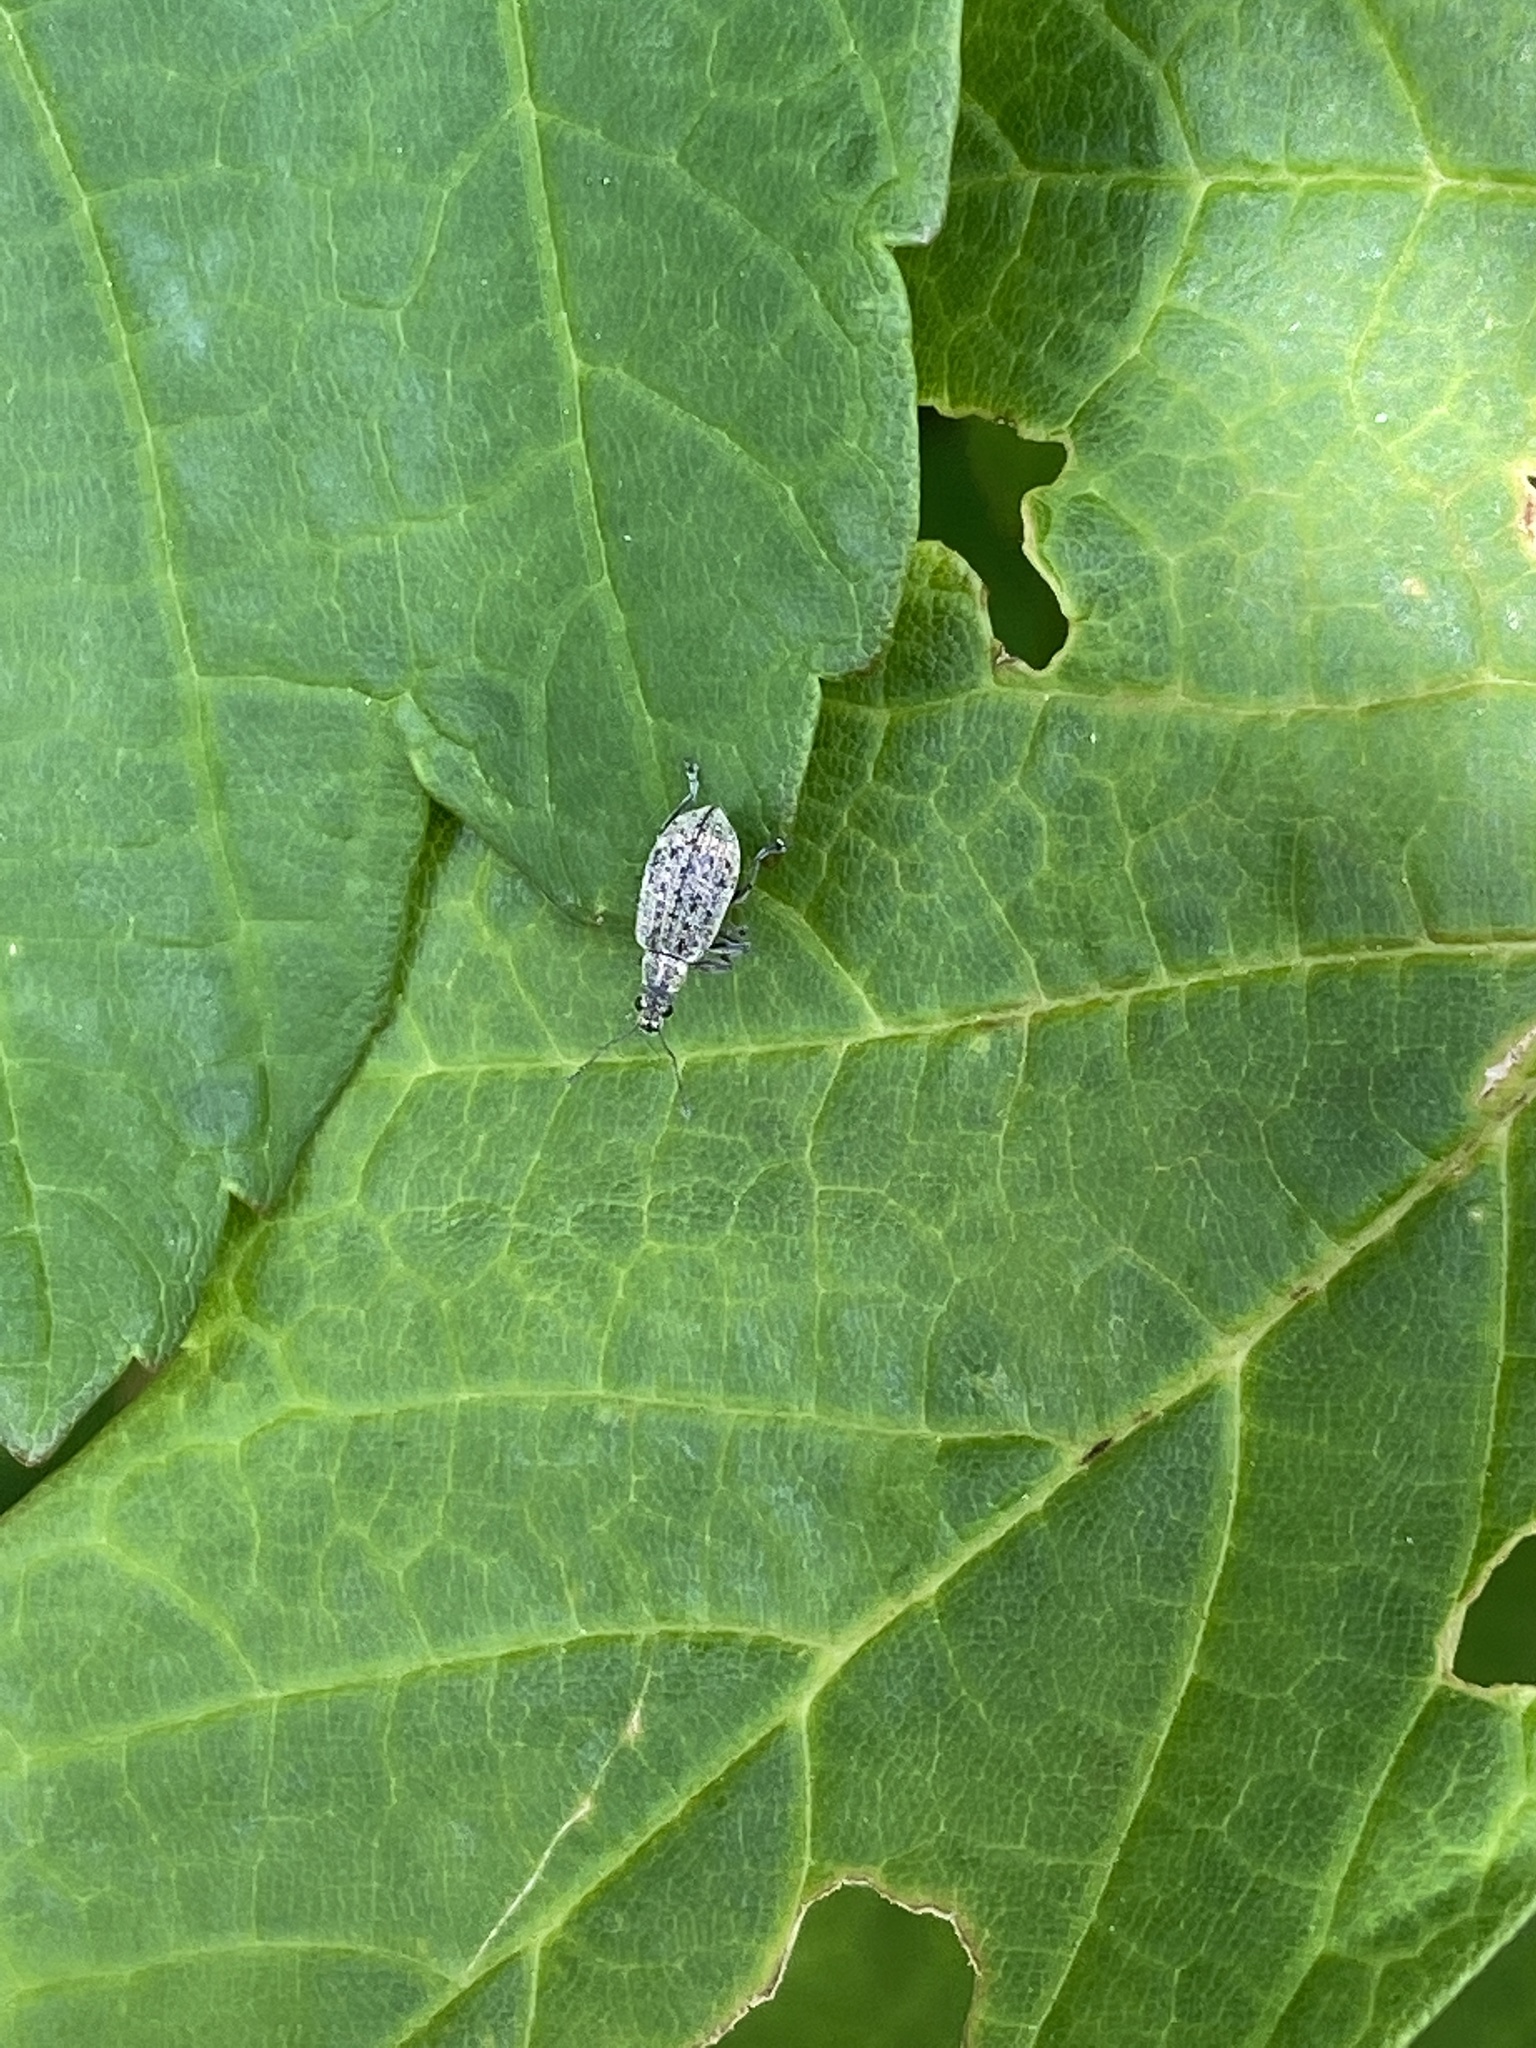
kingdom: Animalia
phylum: Arthropoda
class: Insecta
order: Coleoptera
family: Curculionidae
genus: Polydrusus
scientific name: Polydrusus cervinus
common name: Weevil
